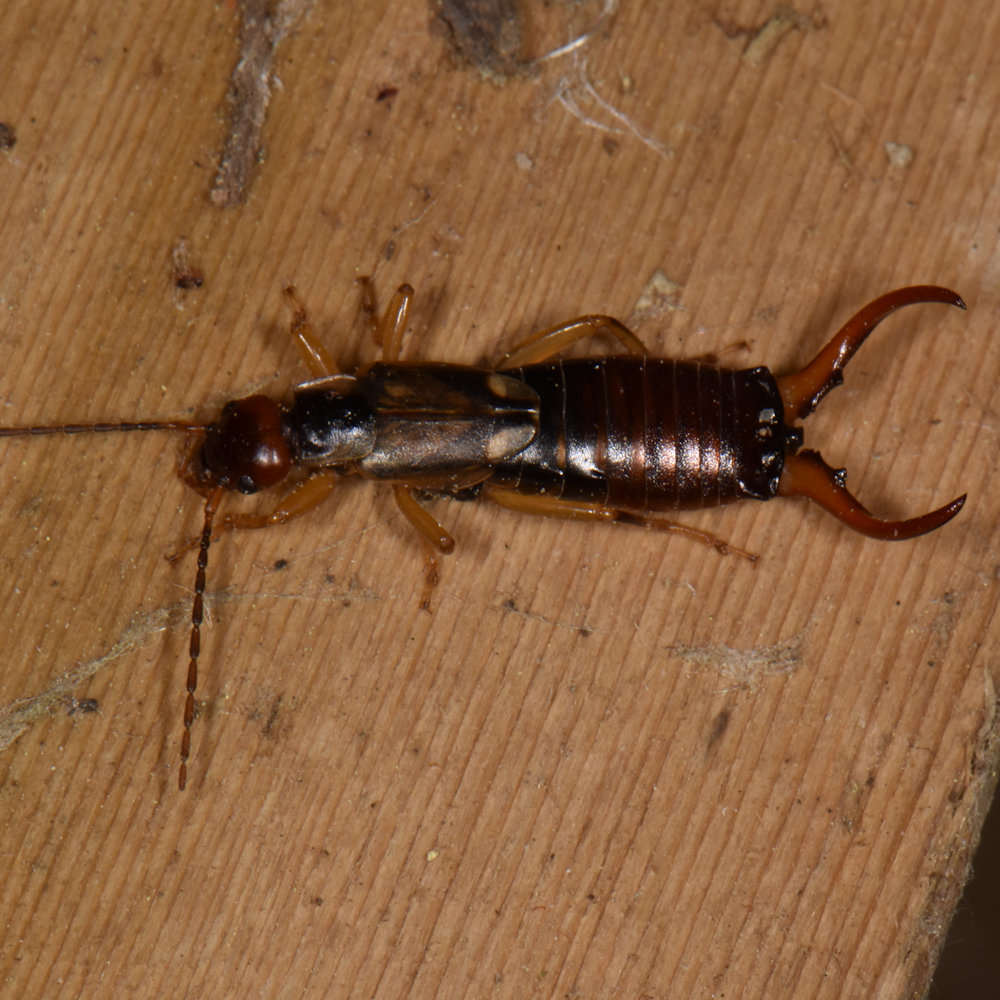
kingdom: Animalia
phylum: Arthropoda
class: Insecta
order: Dermaptera
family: Forficulidae
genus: Forficula
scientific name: Forficula
